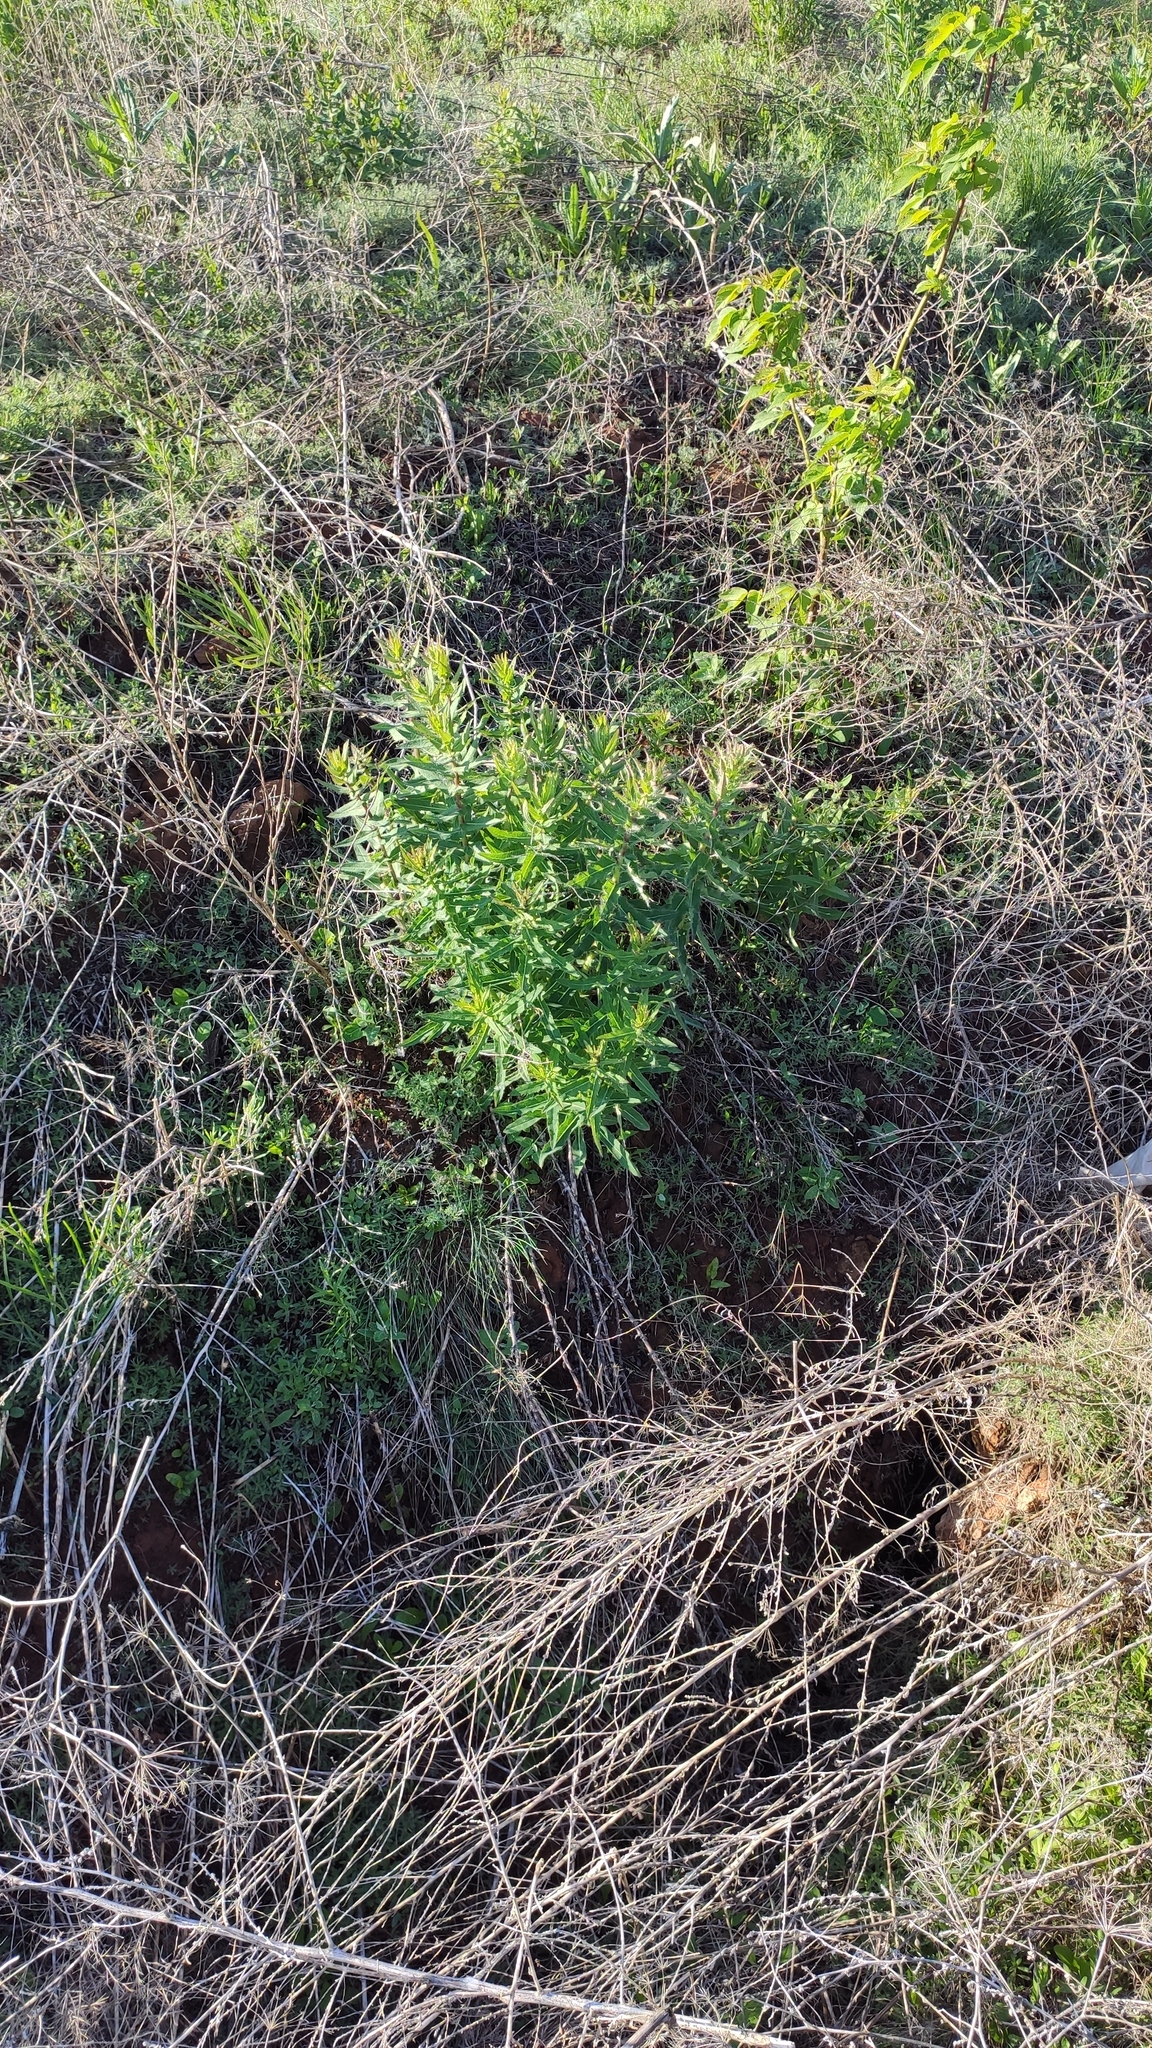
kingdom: Plantae
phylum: Tracheophyta
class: Magnoliopsida
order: Asterales
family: Asteraceae
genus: Hieracium
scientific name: Hieracium robustum
